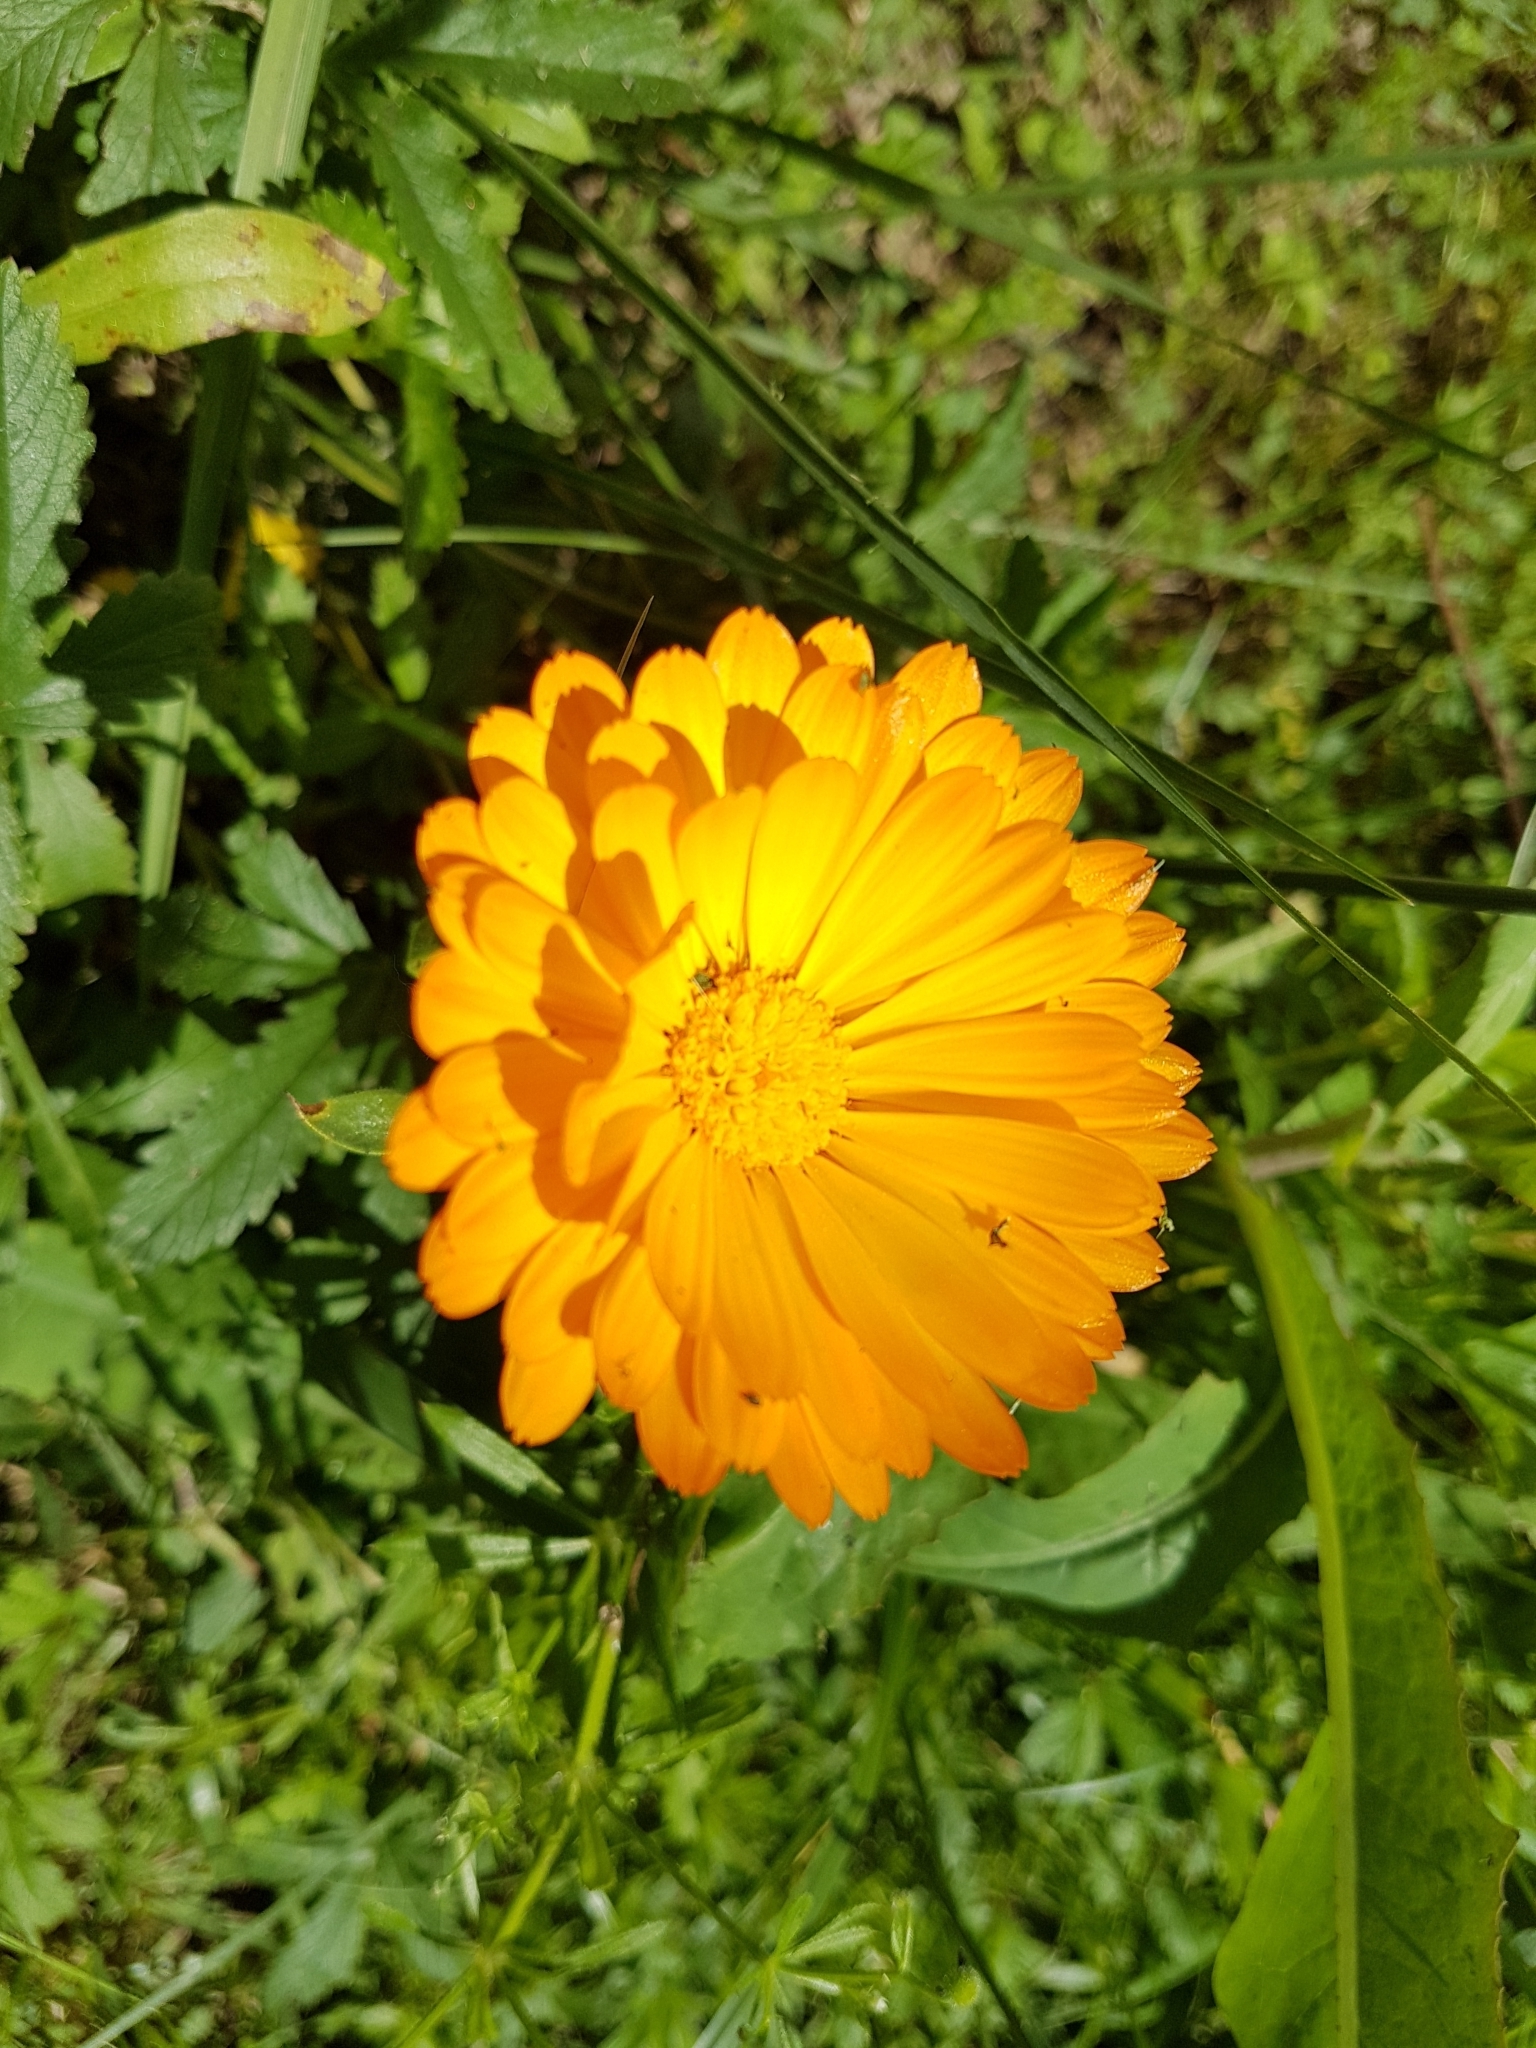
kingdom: Plantae
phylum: Tracheophyta
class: Magnoliopsida
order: Asterales
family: Asteraceae
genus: Calendula
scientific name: Calendula officinalis
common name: Pot marigold
